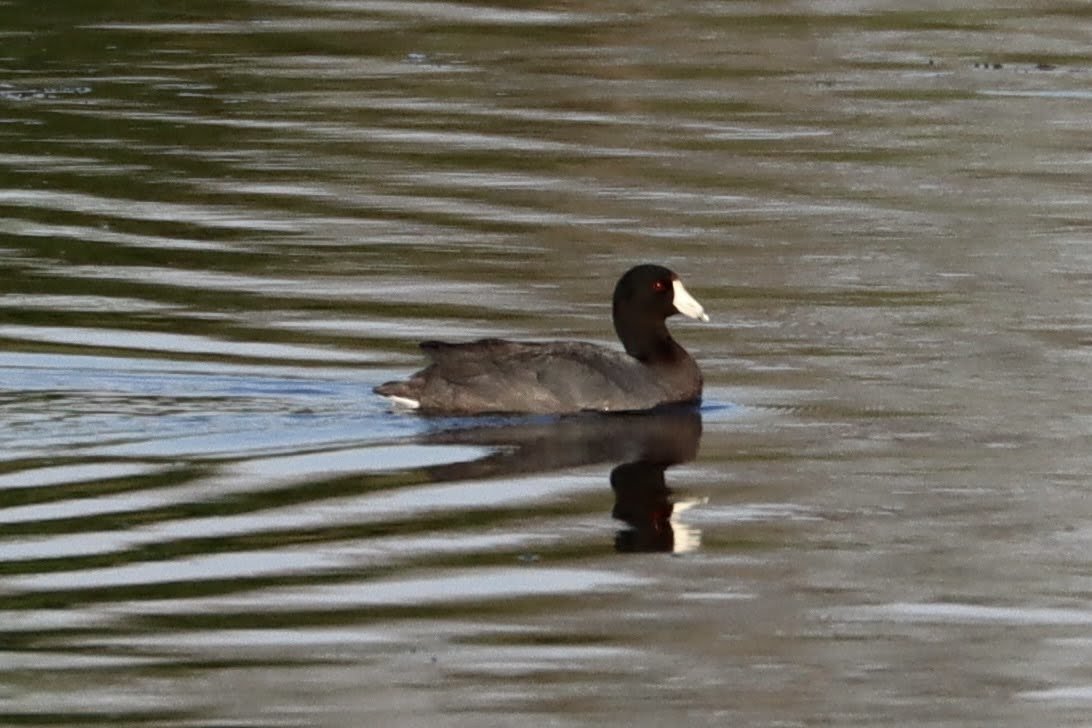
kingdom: Animalia
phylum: Chordata
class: Aves
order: Gruiformes
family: Rallidae
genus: Fulica
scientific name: Fulica americana
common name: American coot
